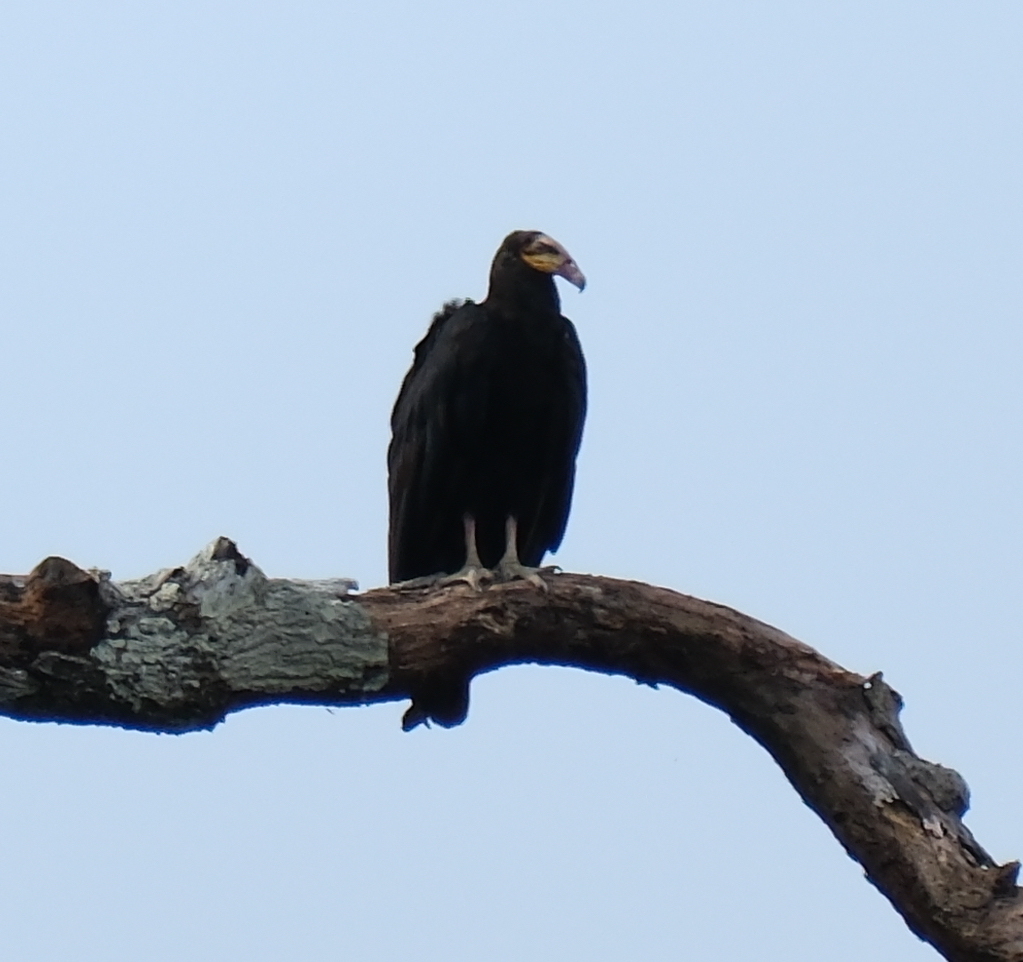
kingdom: Animalia
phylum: Chordata
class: Aves
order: Accipitriformes
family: Cathartidae
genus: Cathartes
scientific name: Cathartes melambrotus
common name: Greater yellow-headed vulture
